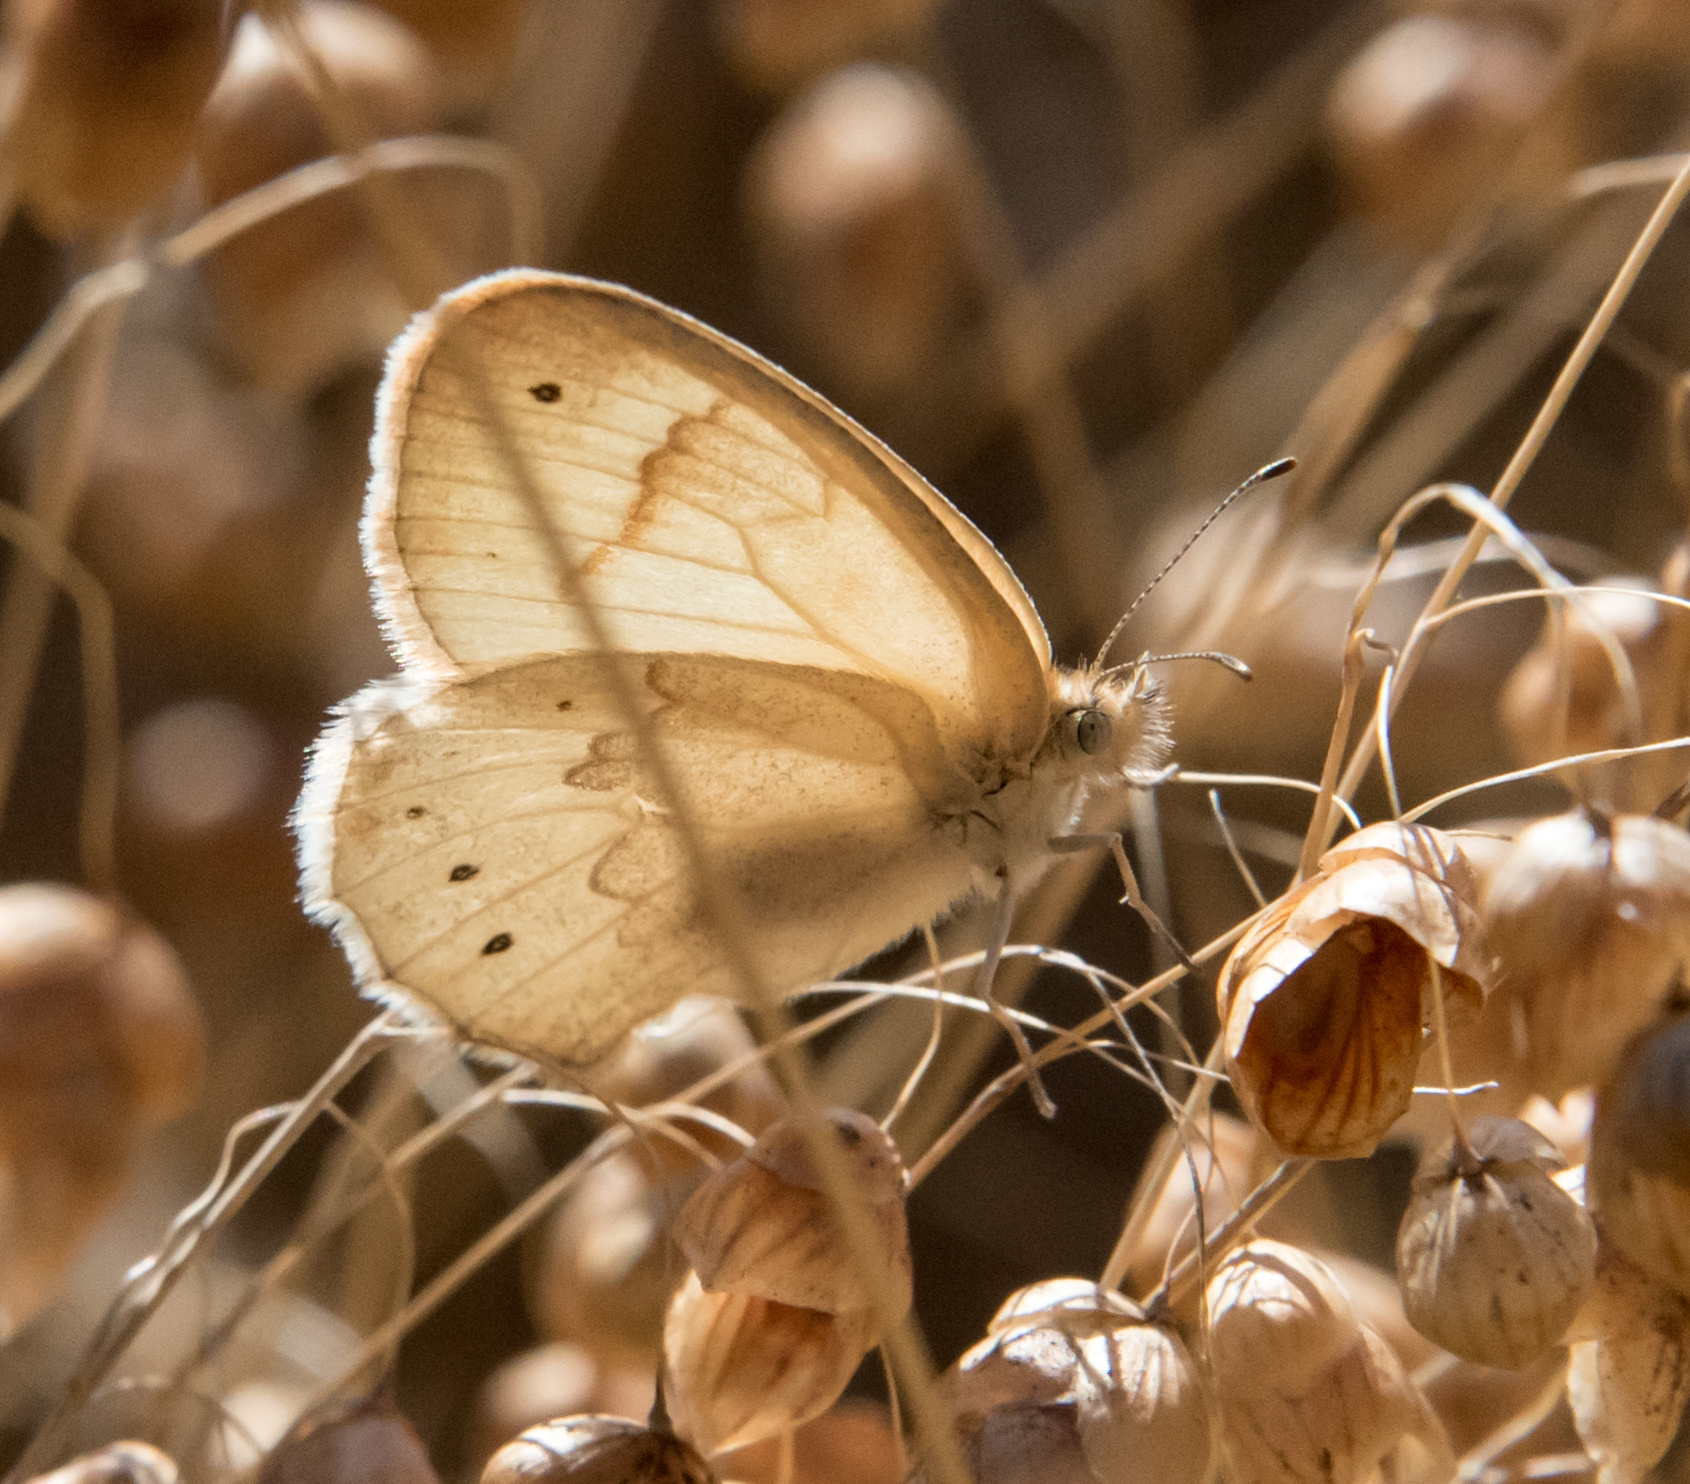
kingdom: Animalia
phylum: Arthropoda
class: Insecta
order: Lepidoptera
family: Nymphalidae
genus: Coenonympha
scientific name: Coenonympha california
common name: Common ringlet
